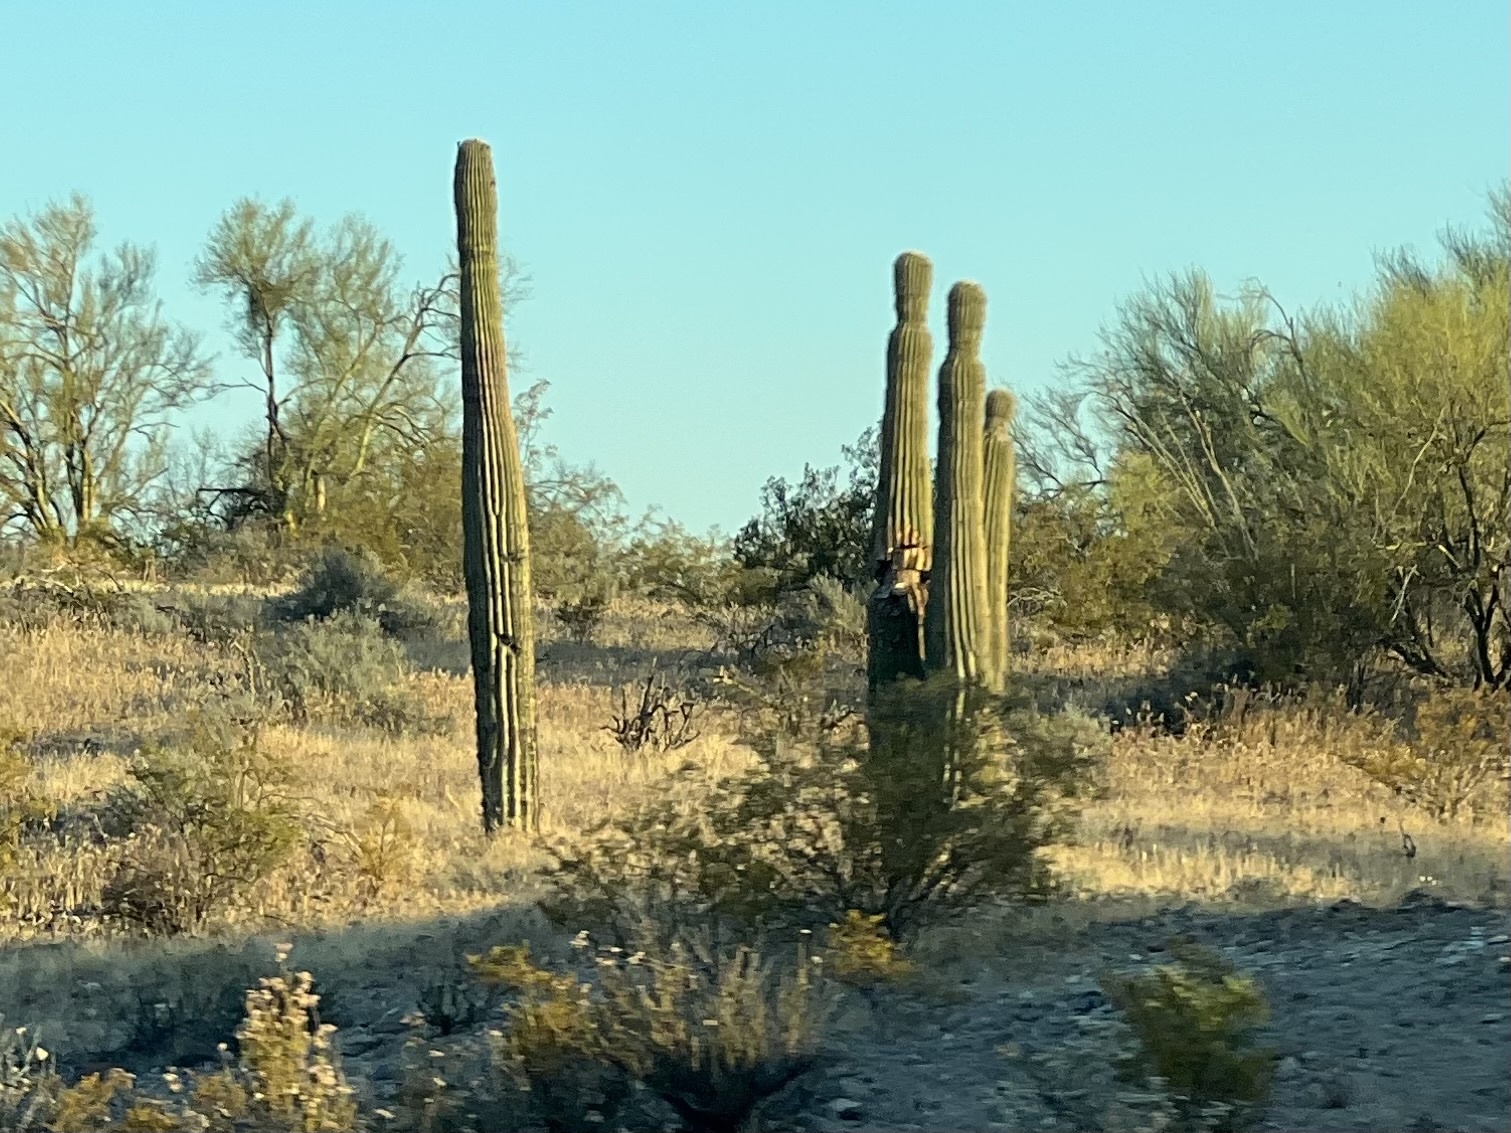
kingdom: Plantae
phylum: Tracheophyta
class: Magnoliopsida
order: Caryophyllales
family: Cactaceae
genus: Carnegiea
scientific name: Carnegiea gigantea
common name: Saguaro
